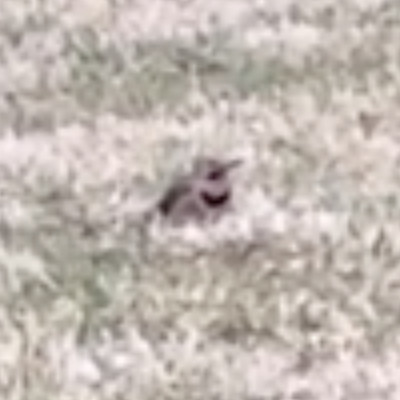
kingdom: Animalia
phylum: Chordata
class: Aves
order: Piciformes
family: Picidae
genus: Colaptes
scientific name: Colaptes auratus
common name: Northern flicker
